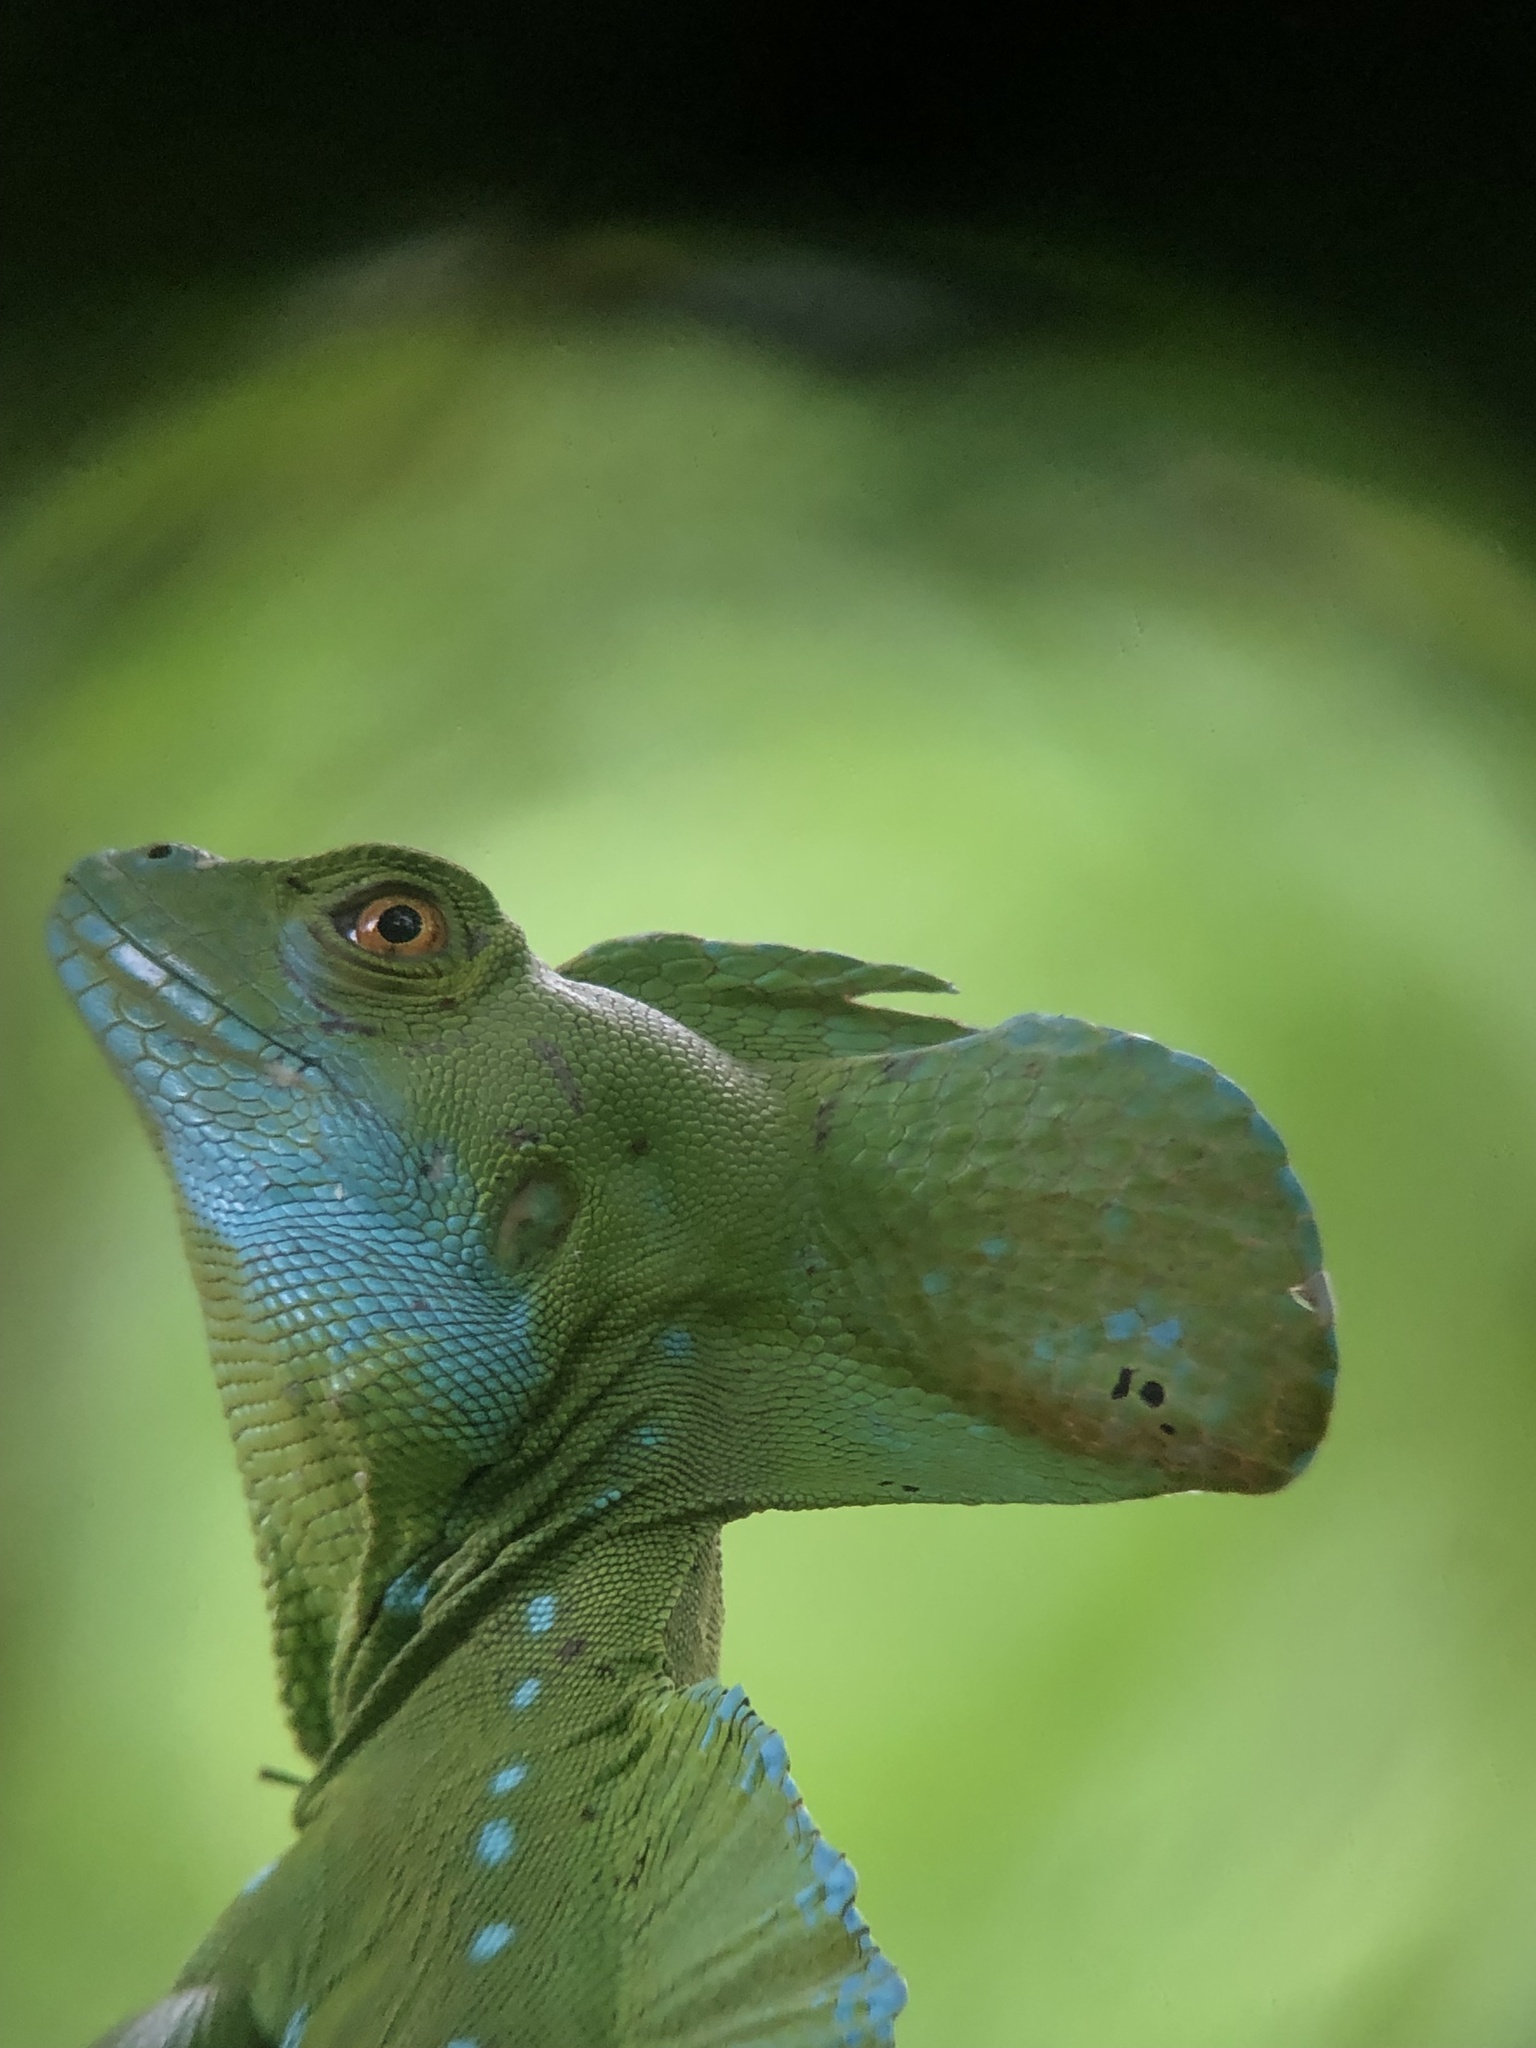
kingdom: Animalia
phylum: Chordata
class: Squamata
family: Corytophanidae
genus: Basiliscus
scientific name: Basiliscus plumifrons
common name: Green basilisk
